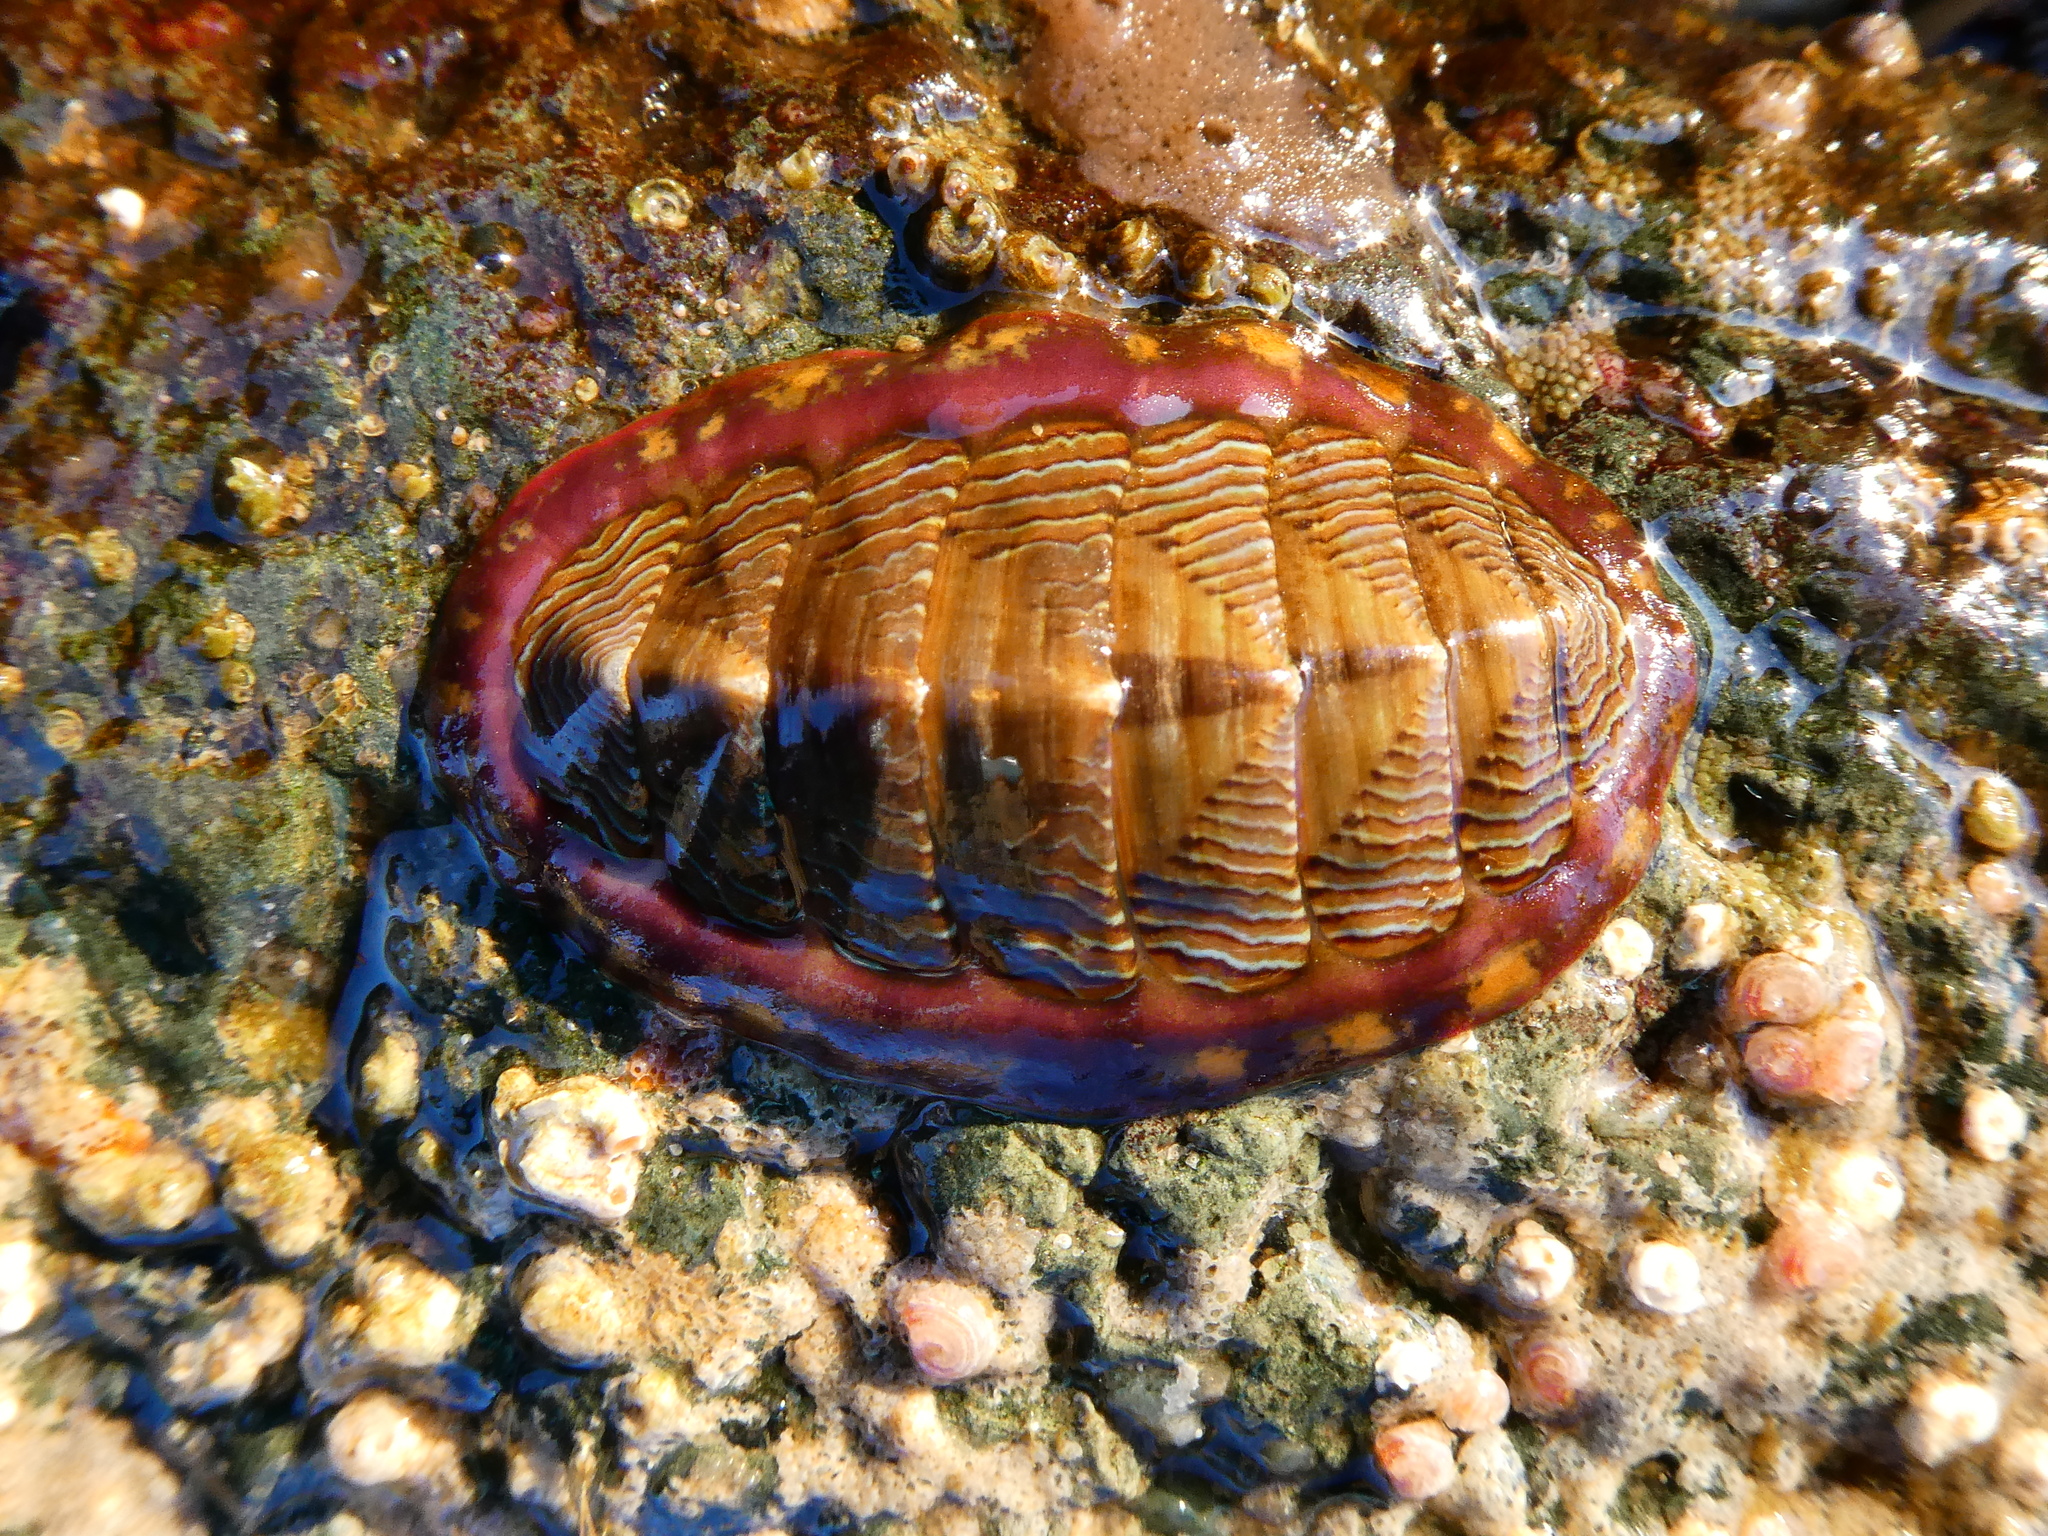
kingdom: Animalia
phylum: Mollusca
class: Polyplacophora
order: Chitonida
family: Tonicellidae
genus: Tonicella
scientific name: Tonicella lineata
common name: Lined chiton
